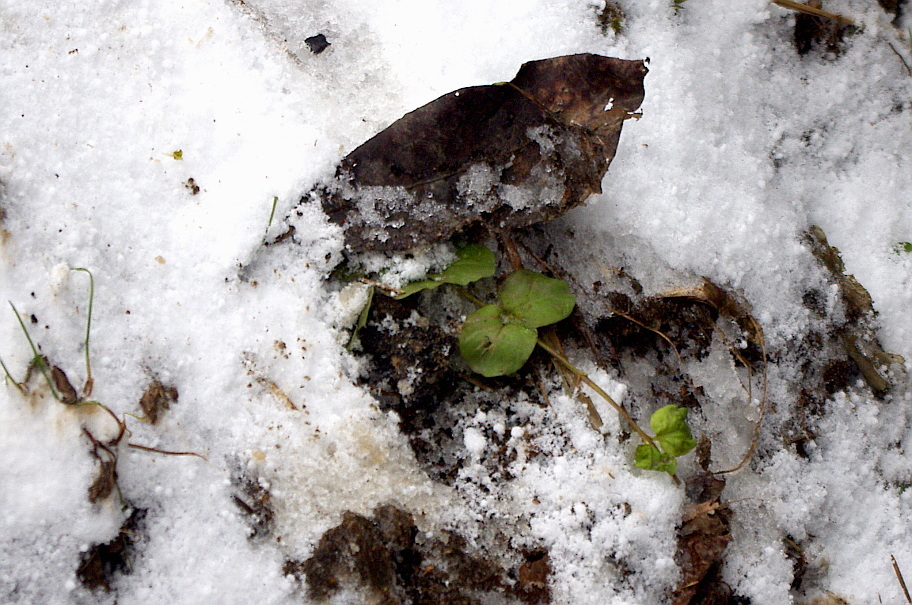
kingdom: Plantae
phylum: Tracheophyta
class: Magnoliopsida
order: Ericales
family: Primulaceae
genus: Lysimachia
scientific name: Lysimachia nummularia
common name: Moneywort
